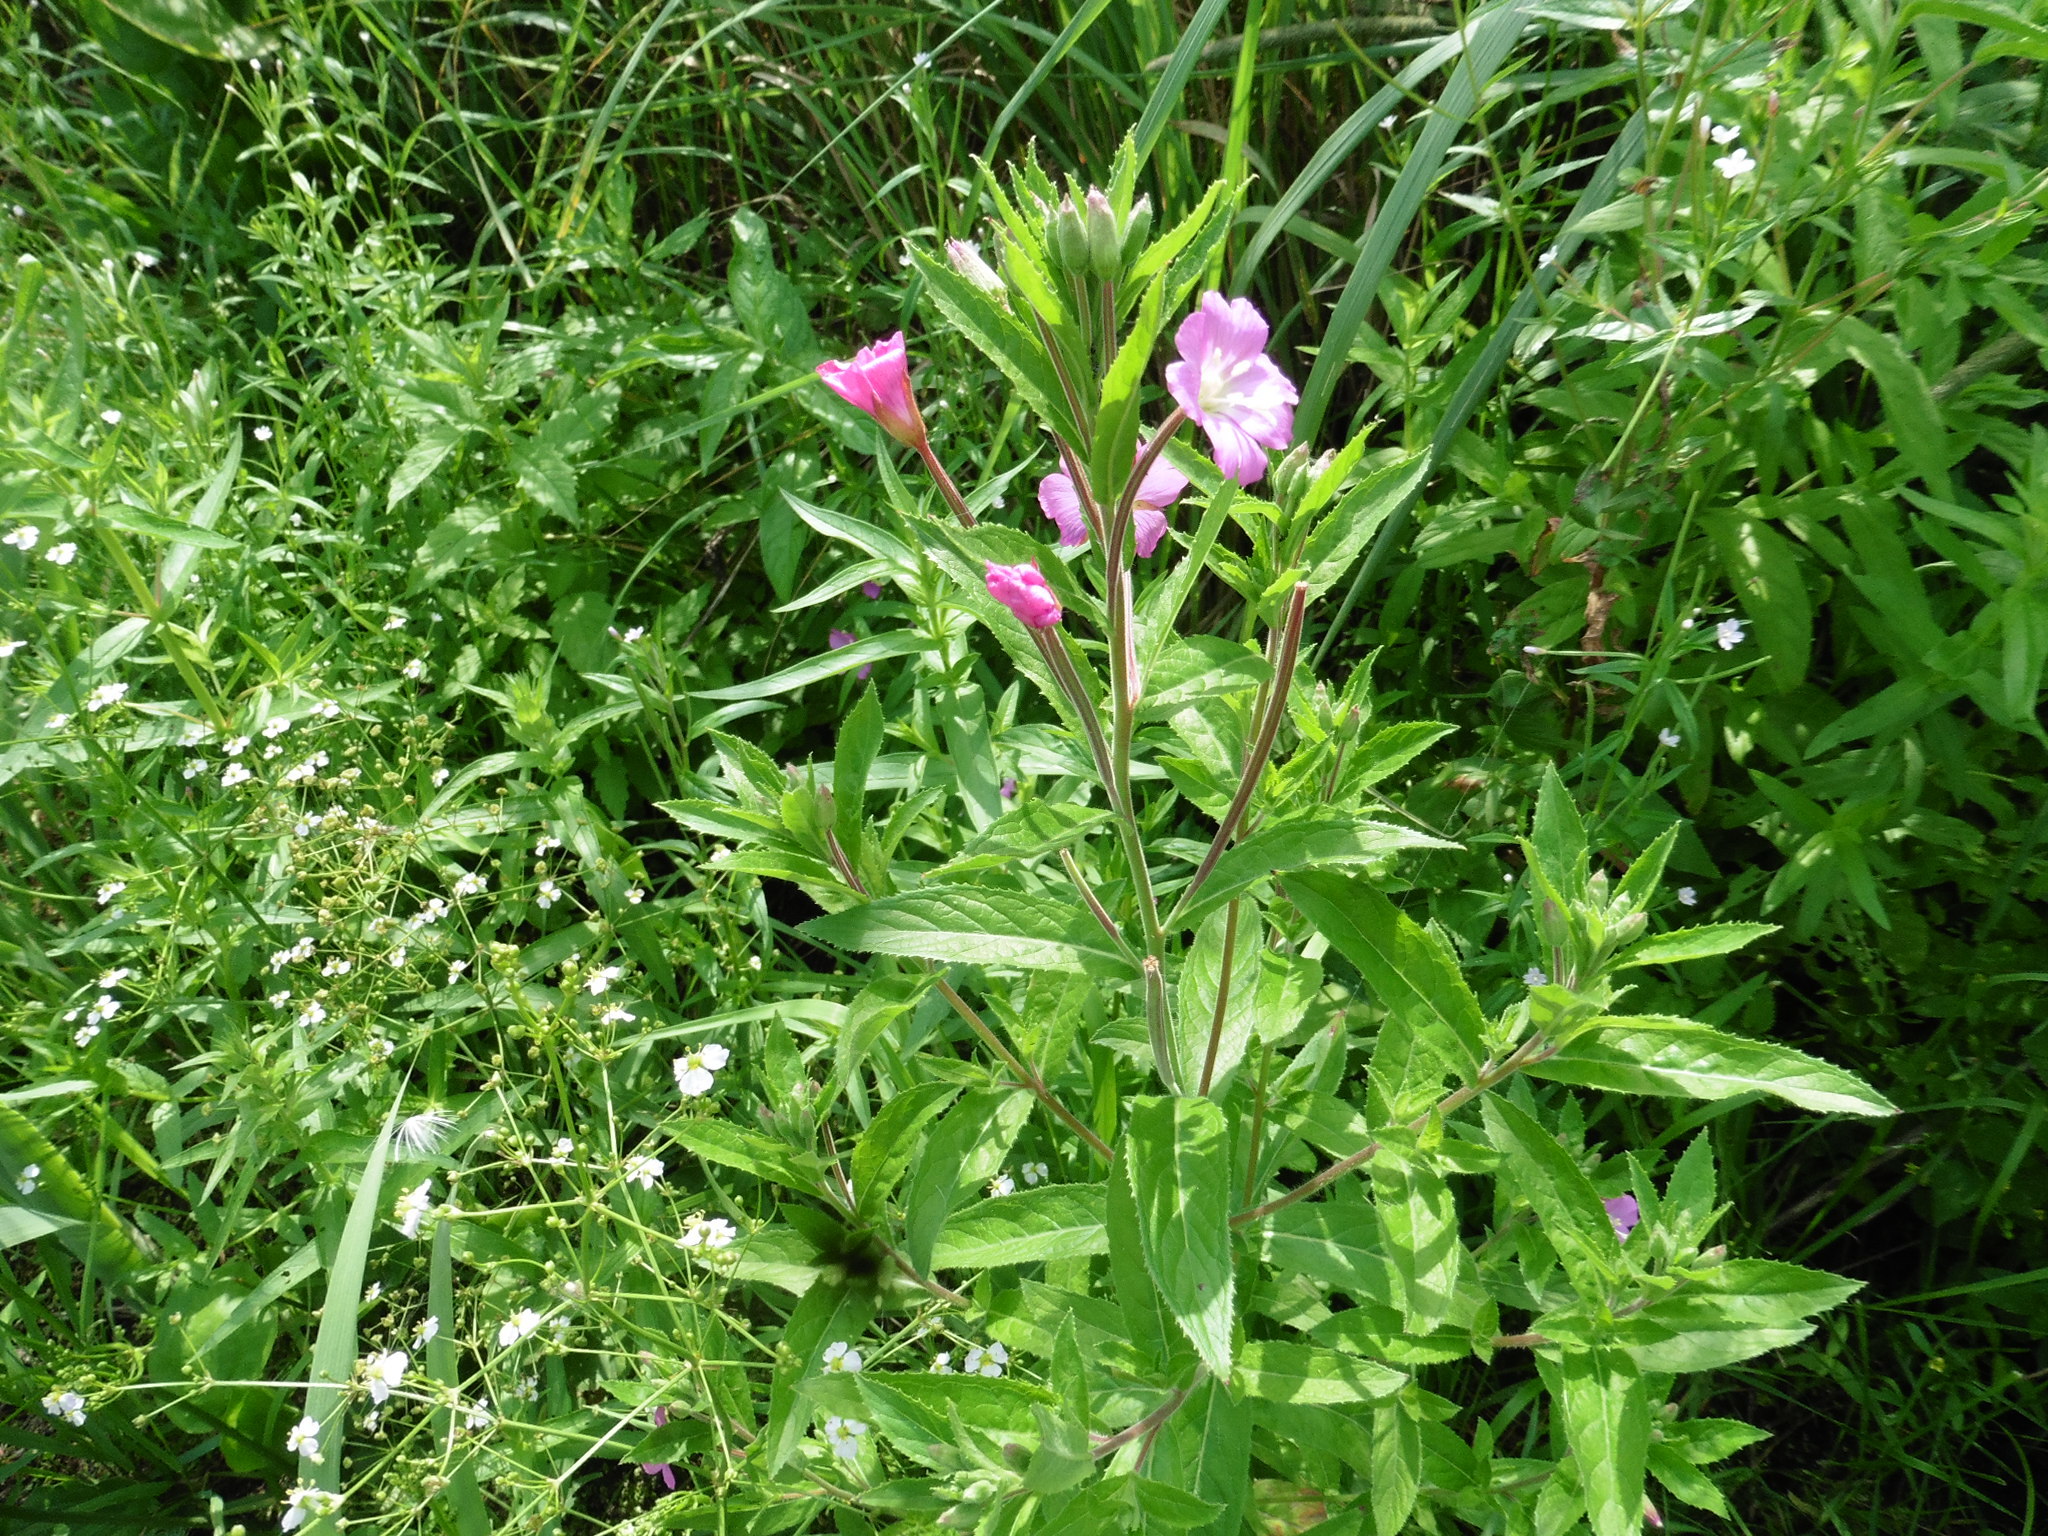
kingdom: Plantae
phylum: Tracheophyta
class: Magnoliopsida
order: Myrtales
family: Onagraceae
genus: Epilobium
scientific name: Epilobium hirsutum
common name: Great willowherb
